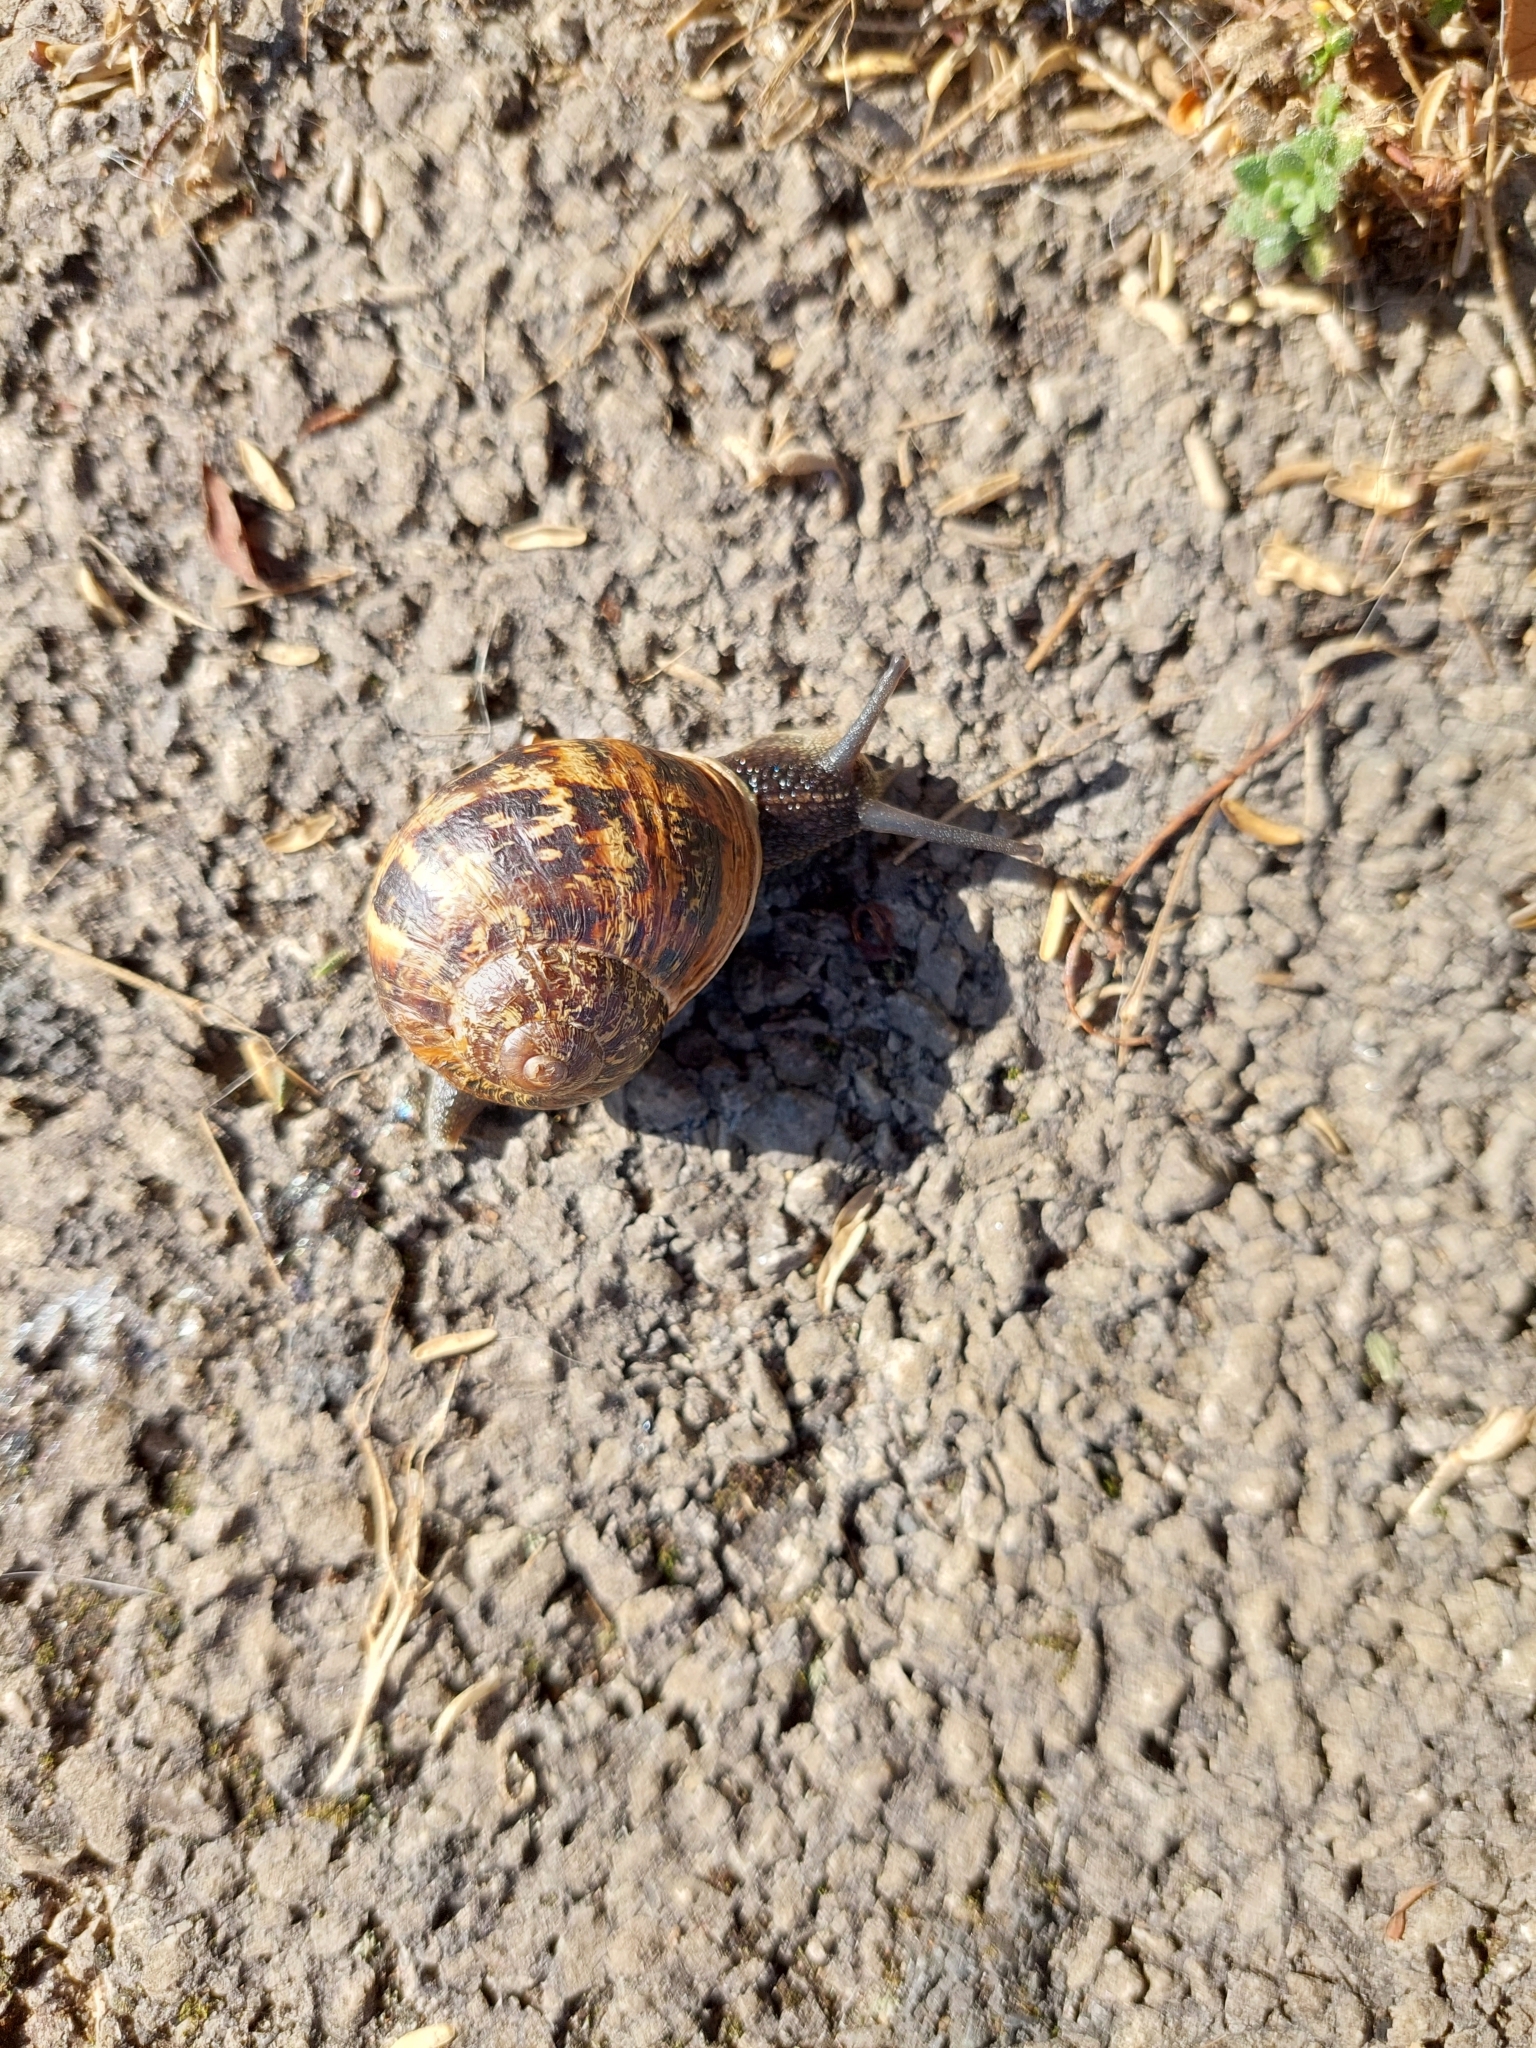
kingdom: Animalia
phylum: Mollusca
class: Gastropoda
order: Stylommatophora
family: Helicidae
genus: Cornu
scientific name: Cornu aspersum
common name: Brown garden snail
